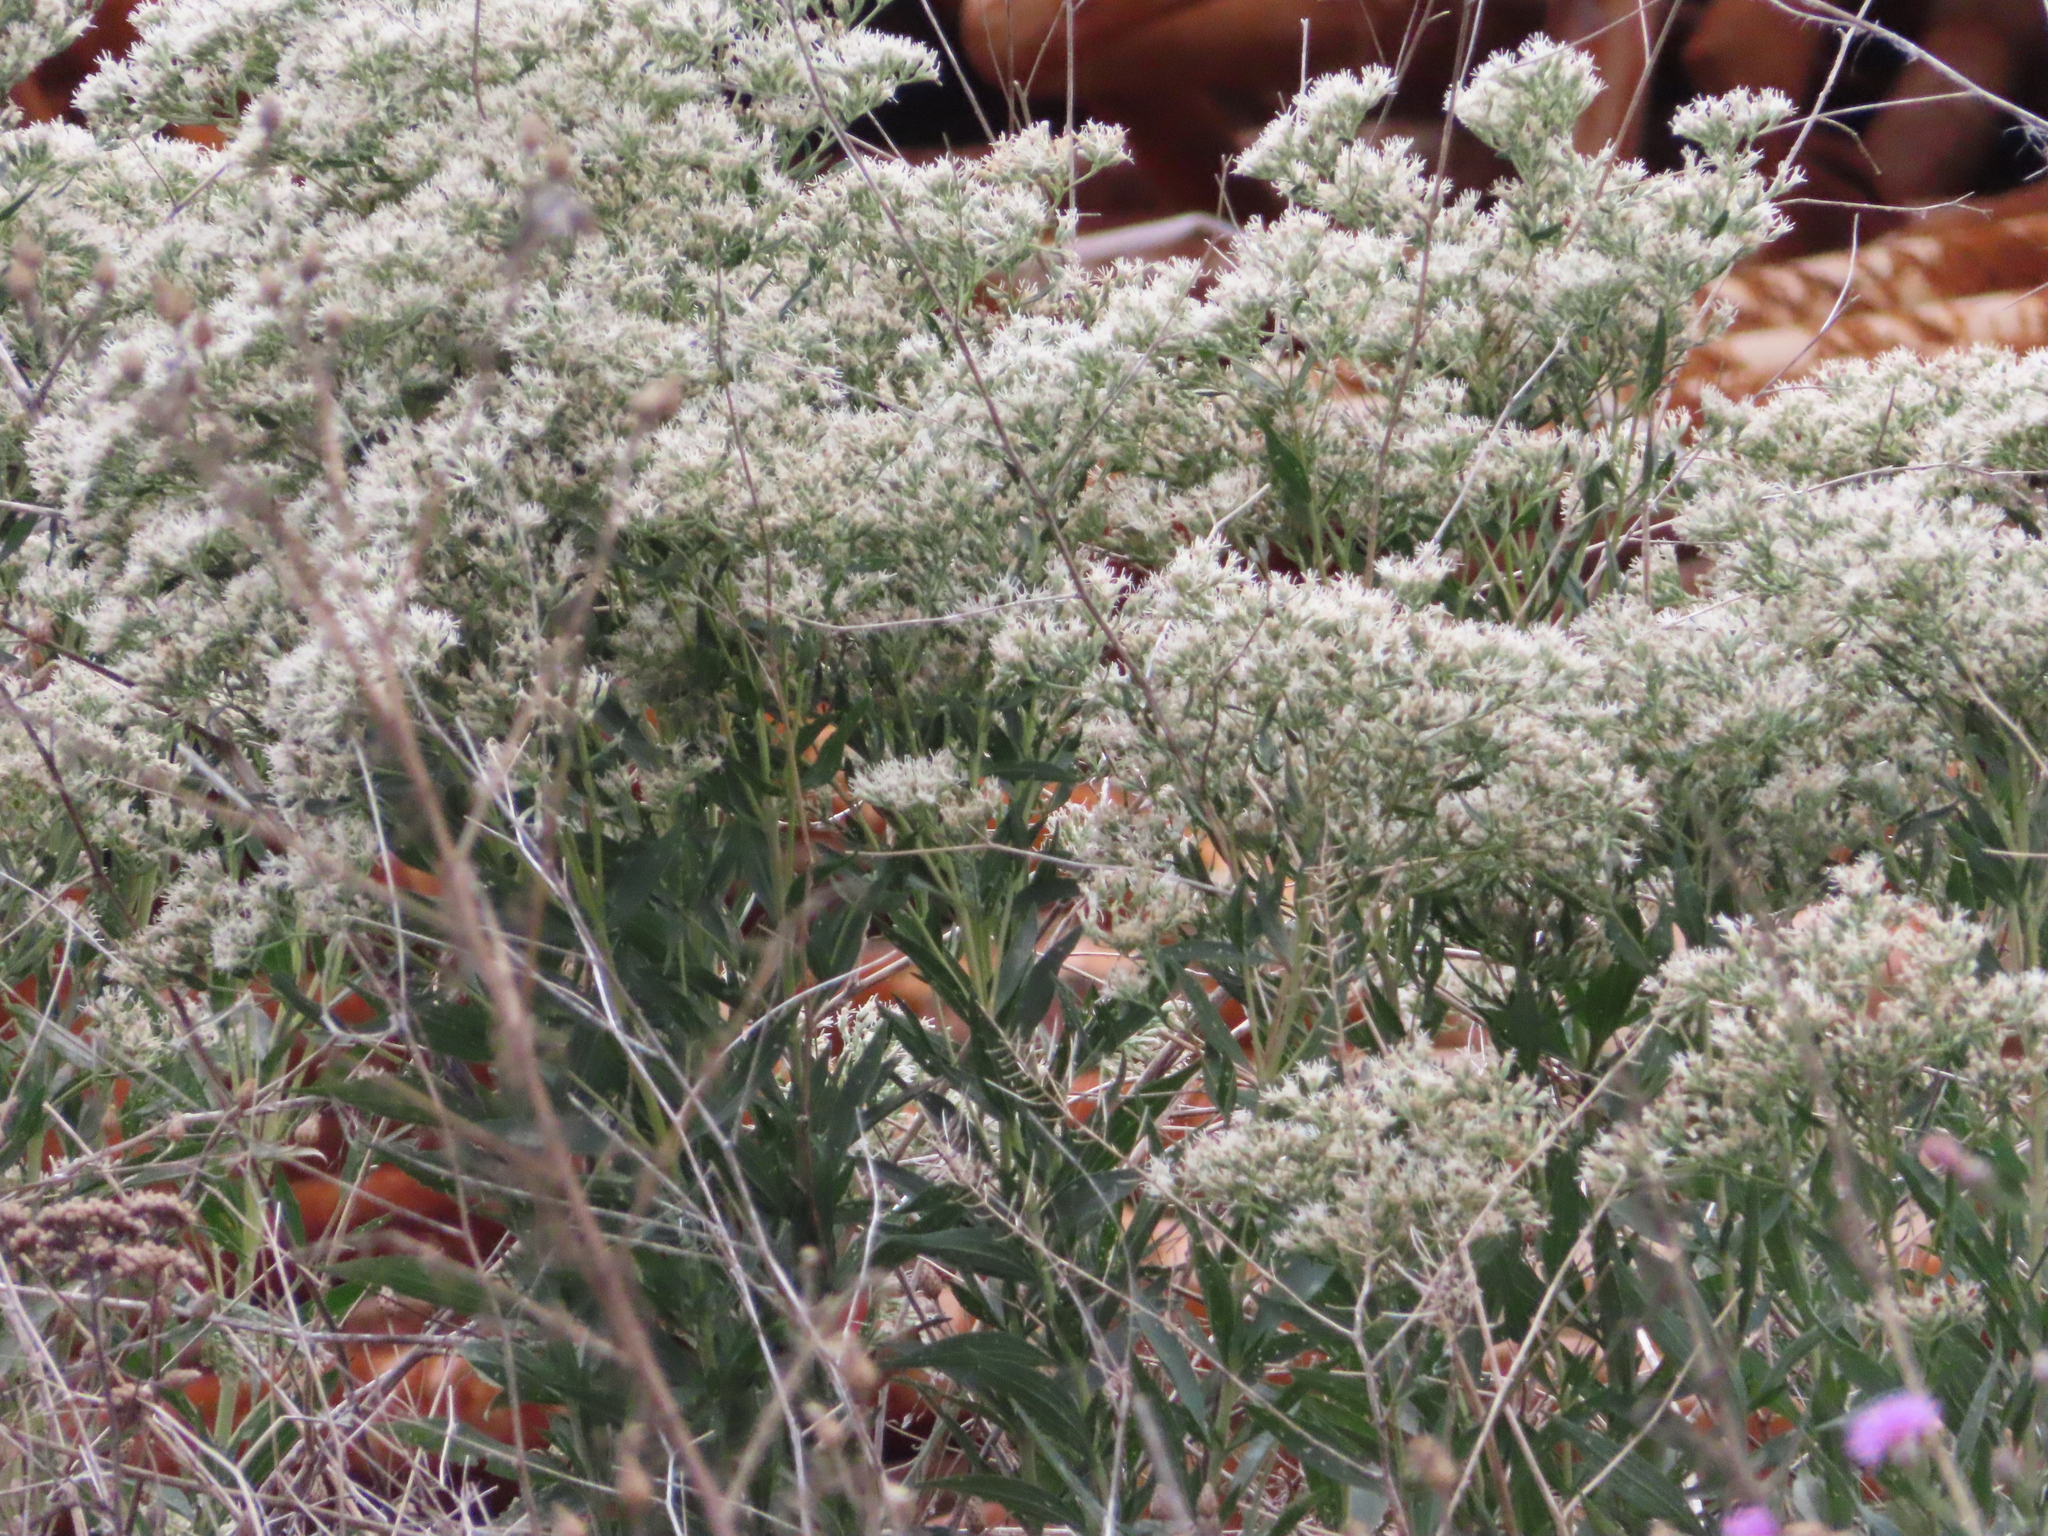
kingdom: Plantae
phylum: Tracheophyta
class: Magnoliopsida
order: Asterales
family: Asteraceae
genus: Eupatorium
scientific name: Eupatorium altissimum
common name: Tall thoroughwort
